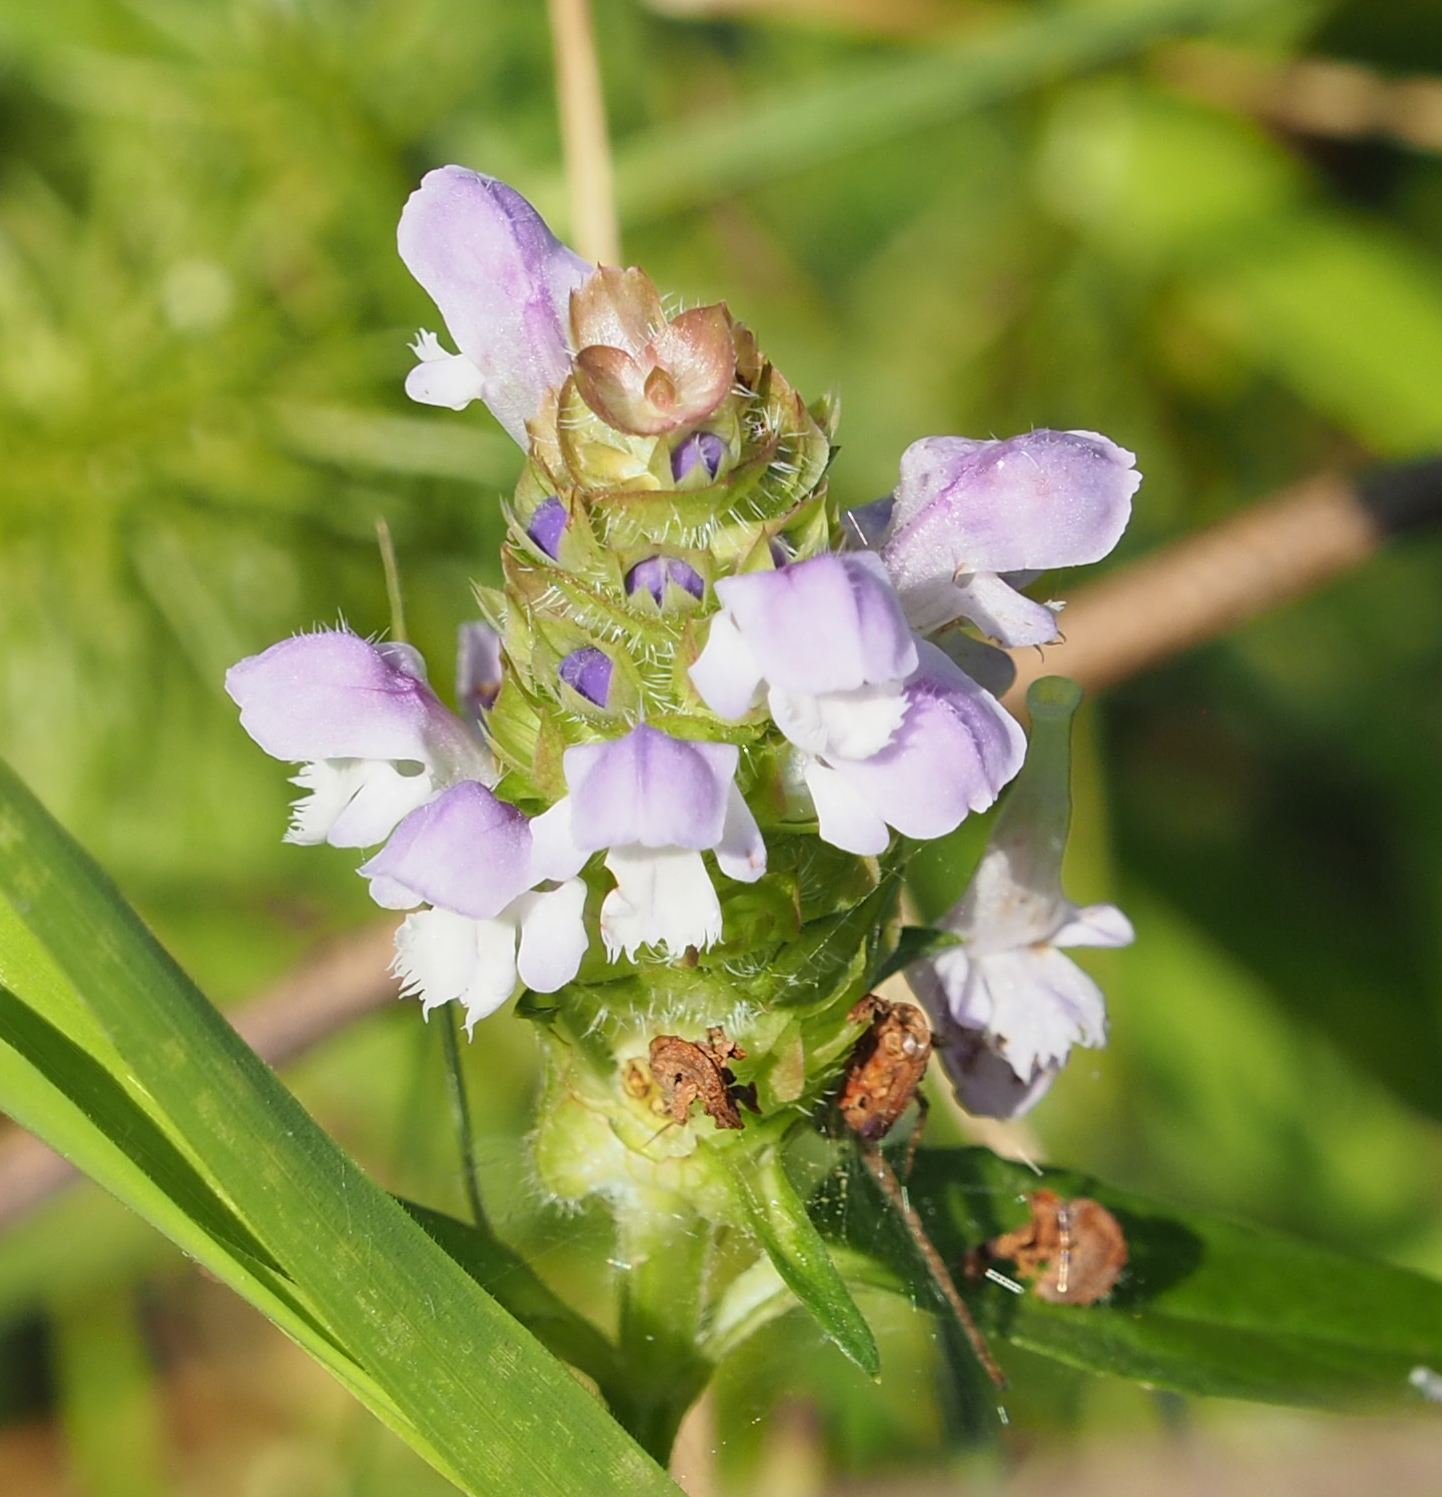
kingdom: Plantae
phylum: Tracheophyta
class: Magnoliopsida
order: Lamiales
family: Lamiaceae
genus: Prunella
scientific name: Prunella vulgaris
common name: Heal-all
